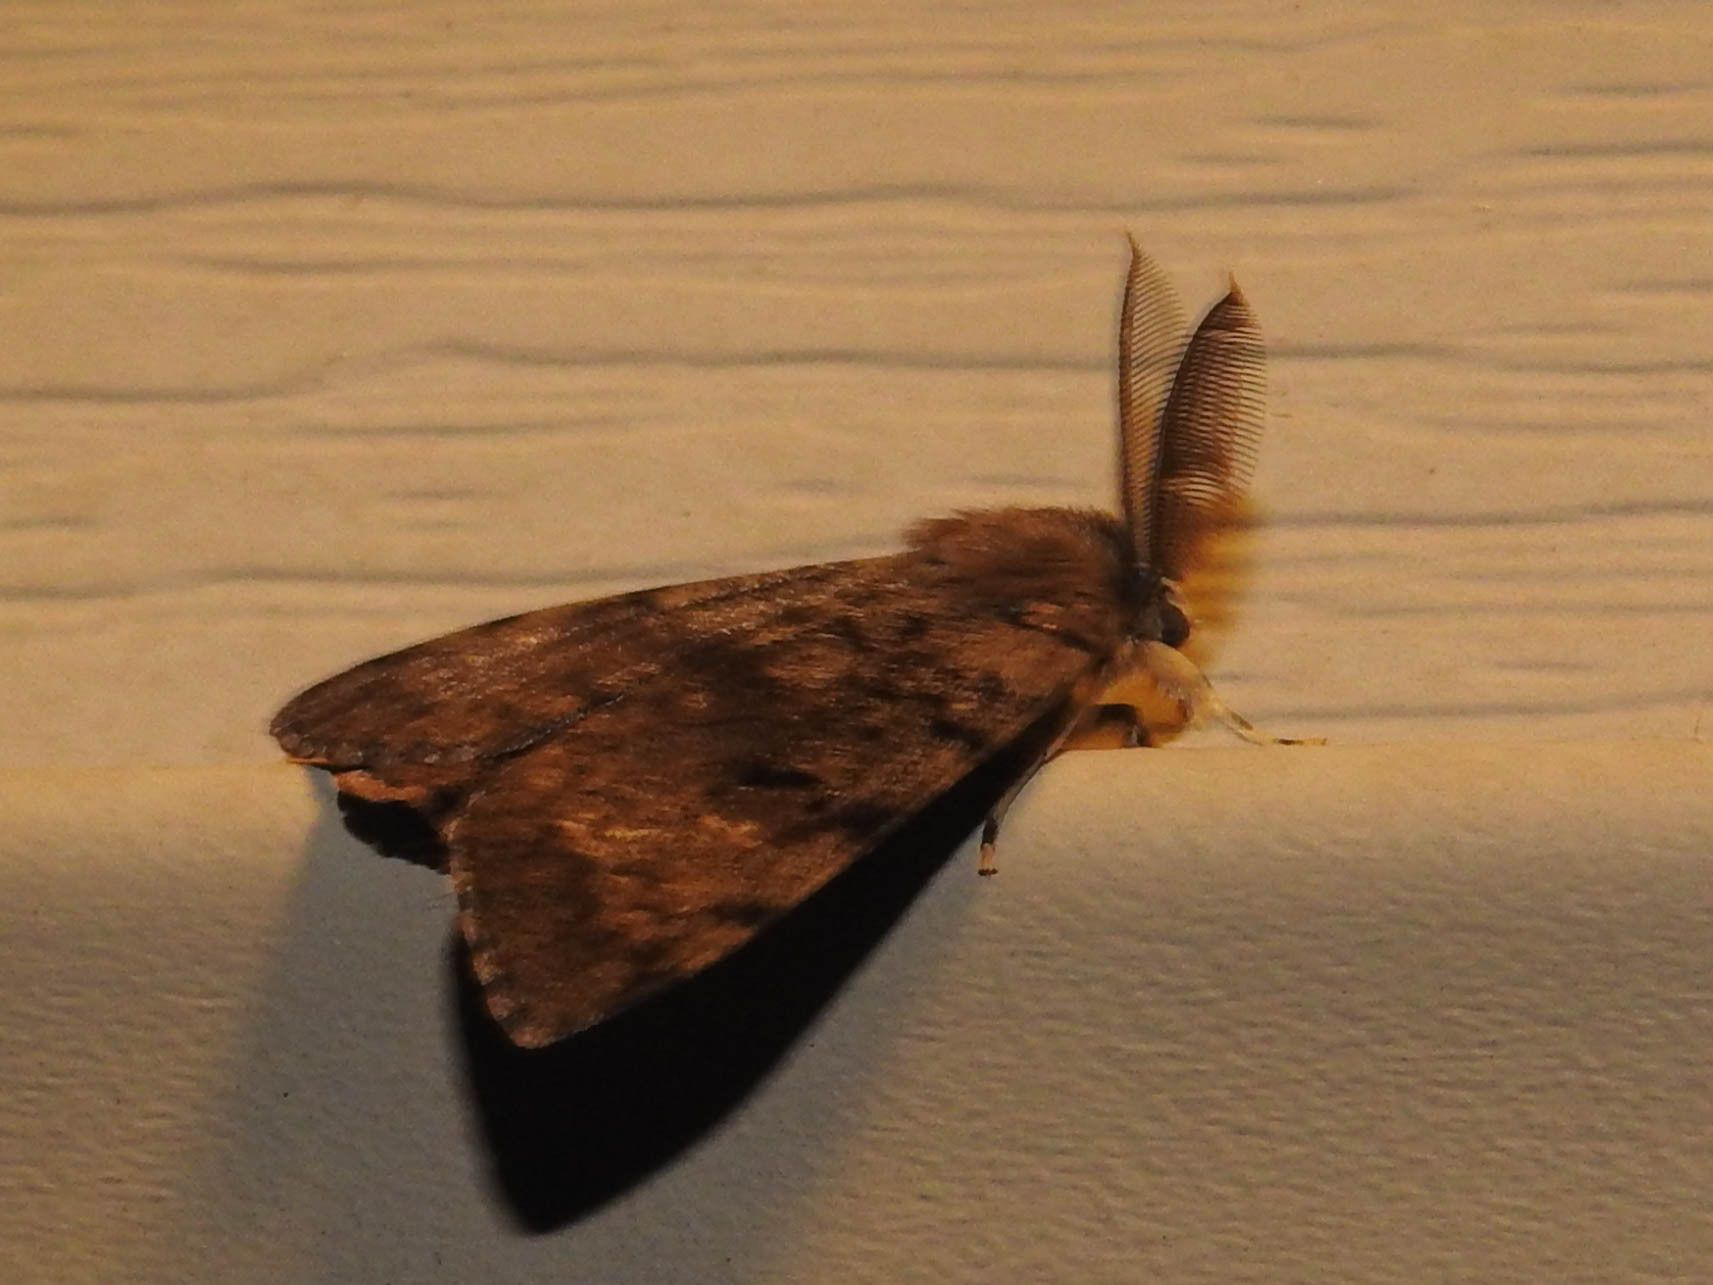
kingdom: Animalia
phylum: Arthropoda
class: Insecta
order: Lepidoptera
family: Erebidae
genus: Lymantria
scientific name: Lymantria dispar
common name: Gypsy moth
